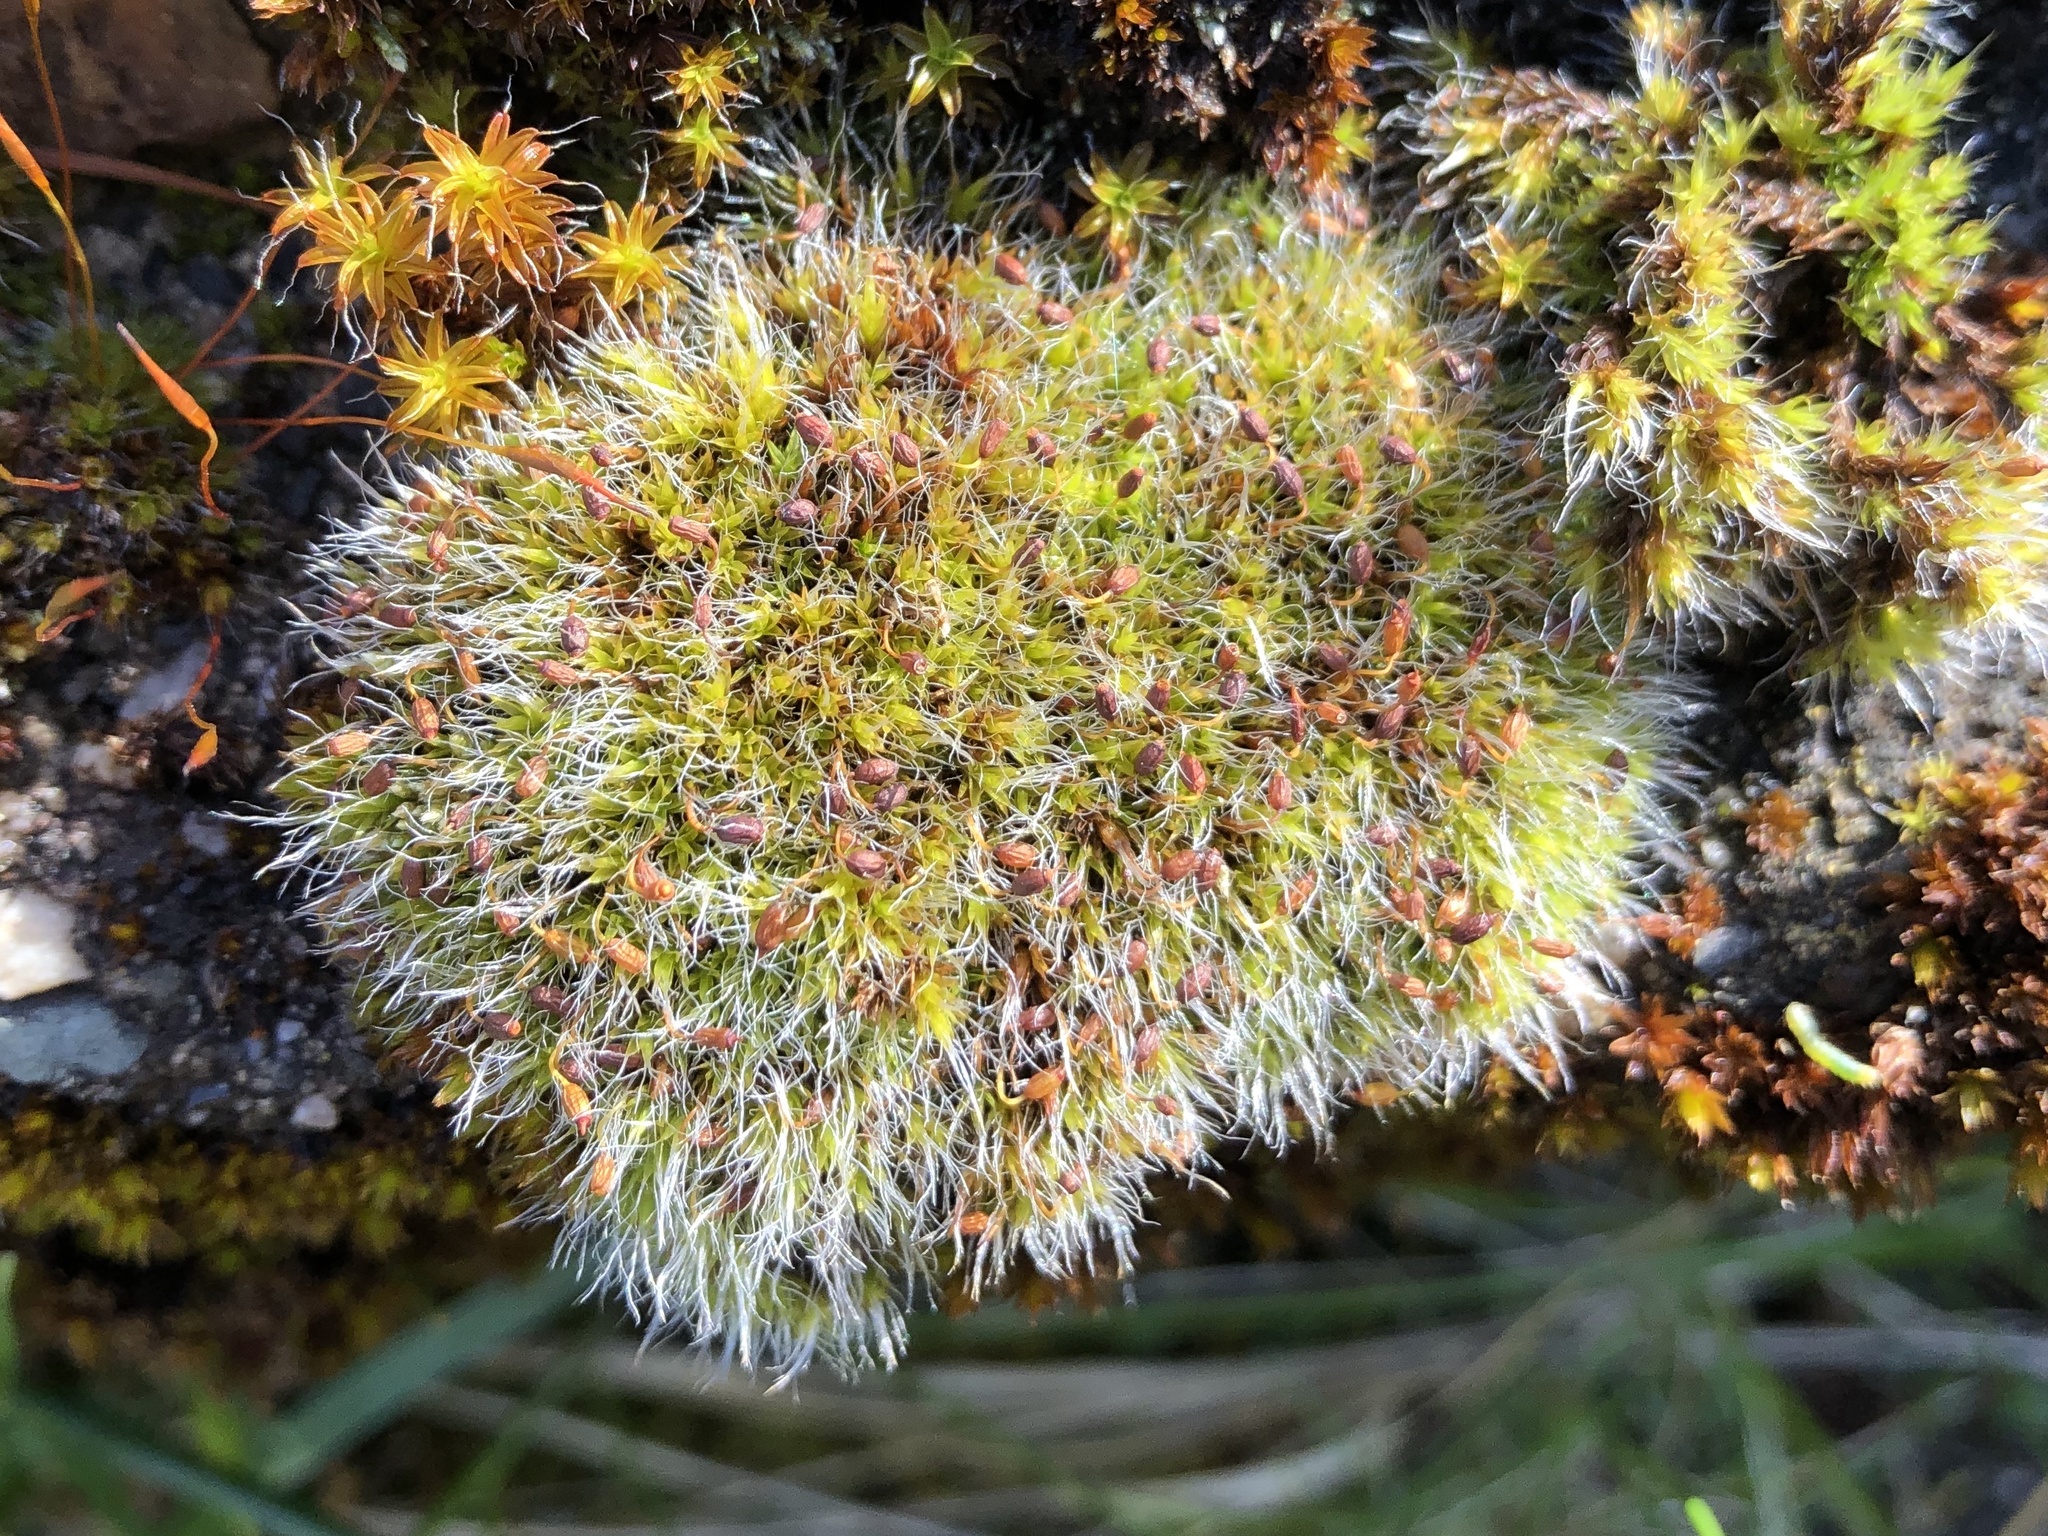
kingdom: Plantae
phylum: Bryophyta
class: Bryopsida
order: Grimmiales
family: Grimmiaceae
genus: Grimmia
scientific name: Grimmia pulvinata
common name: Grey-cushioned grimmia
